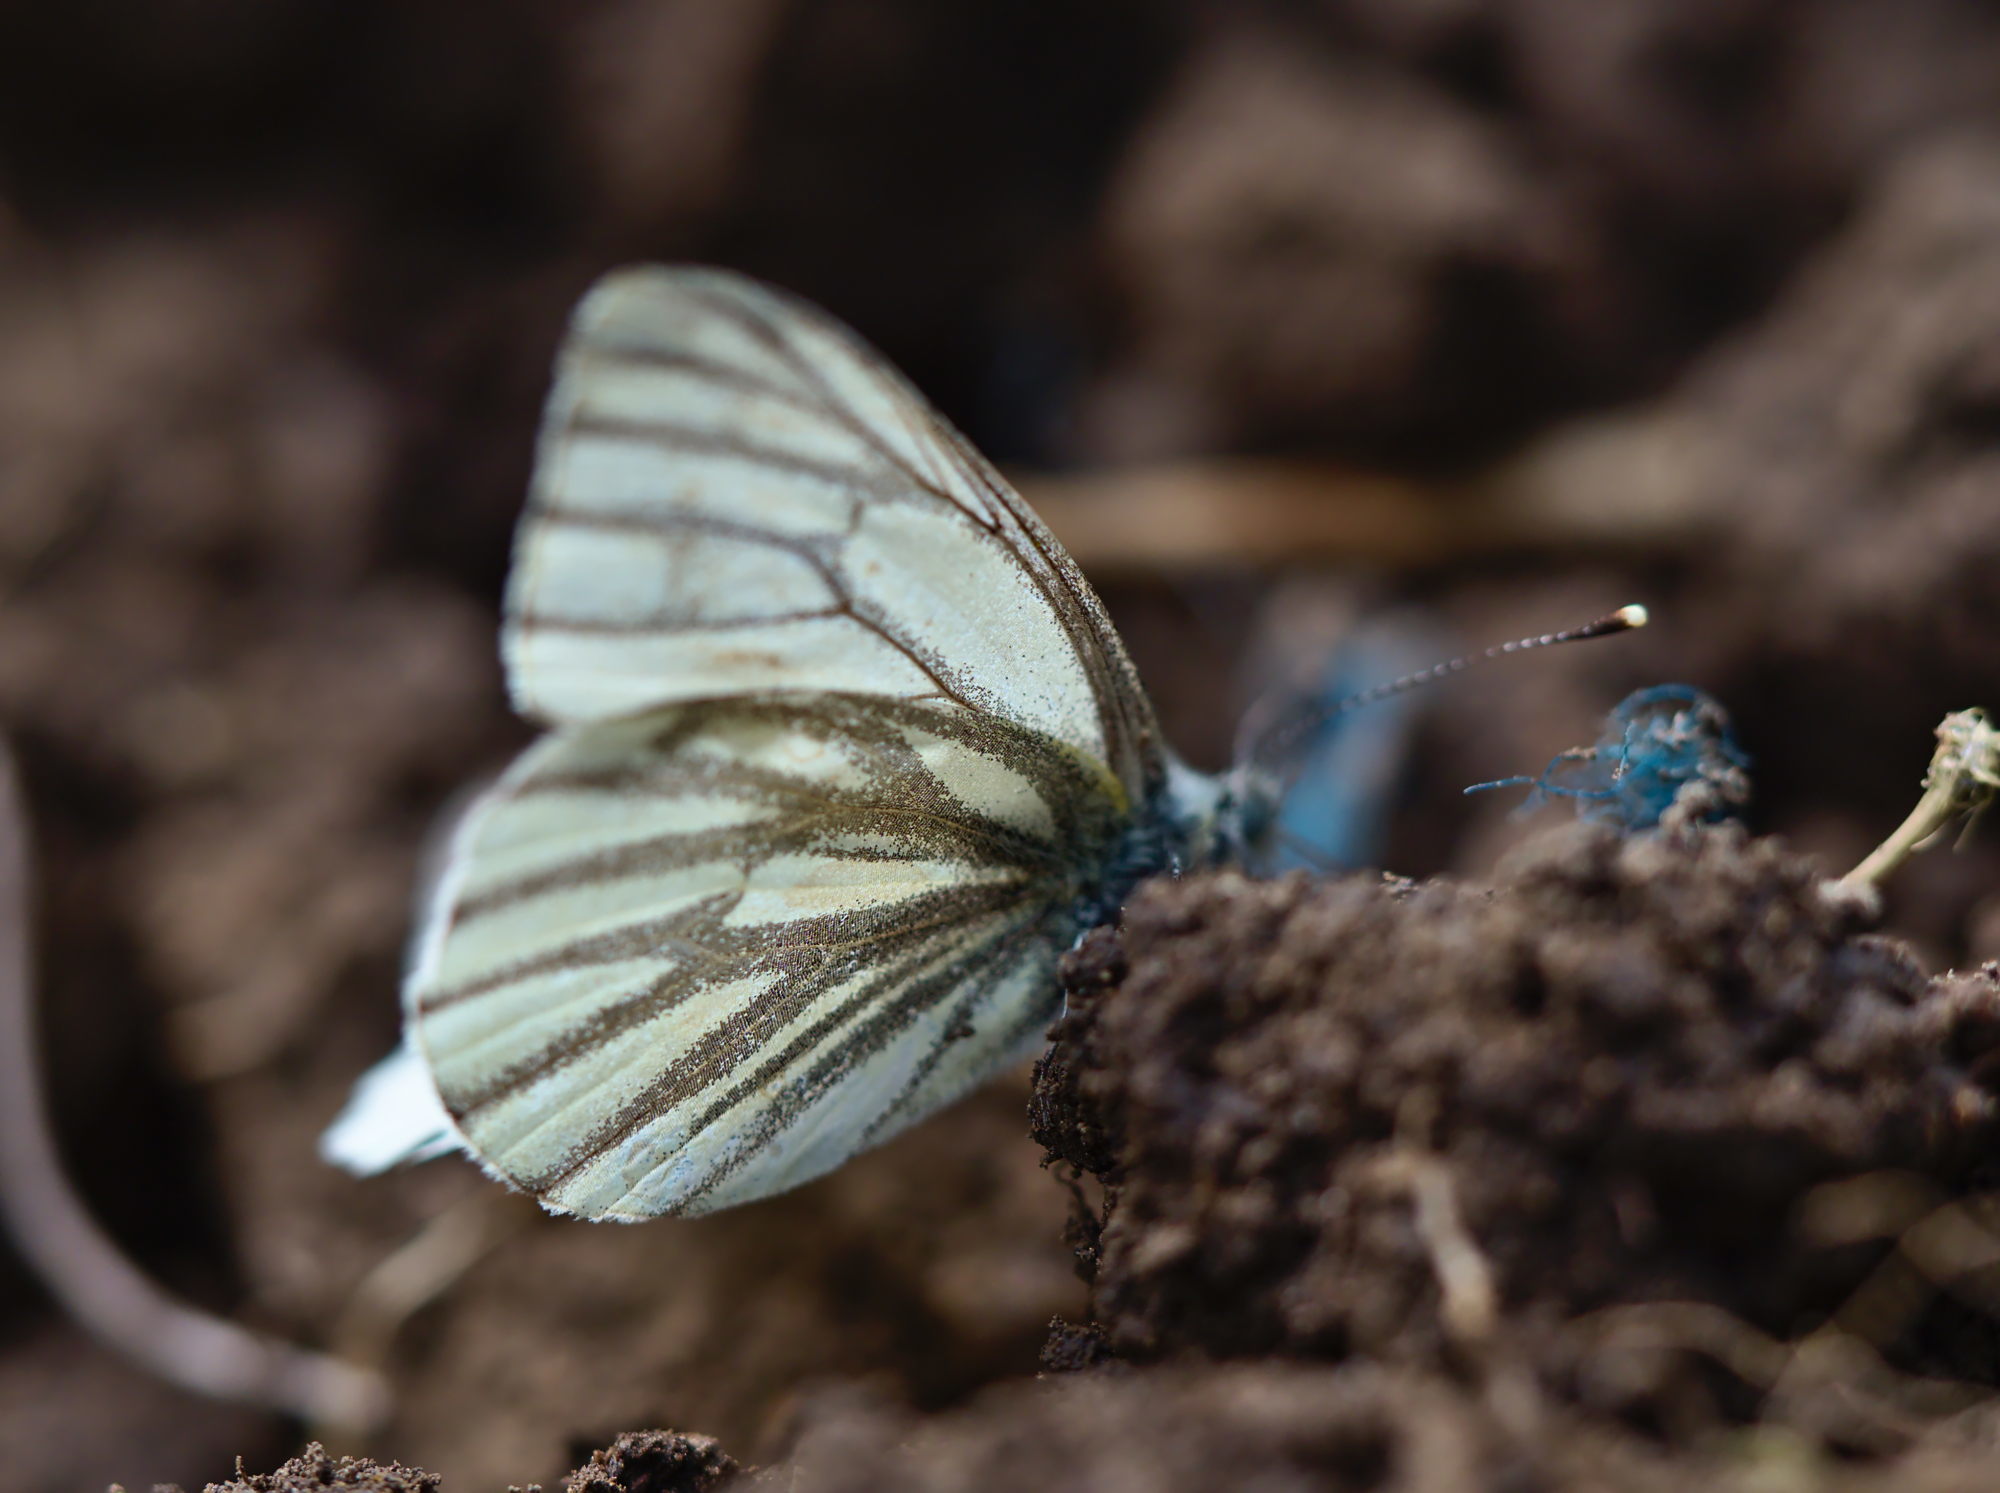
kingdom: Animalia
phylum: Arthropoda
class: Insecta
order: Lepidoptera
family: Pieridae
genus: Pieris
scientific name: Pieris napi
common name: Green-veined white
